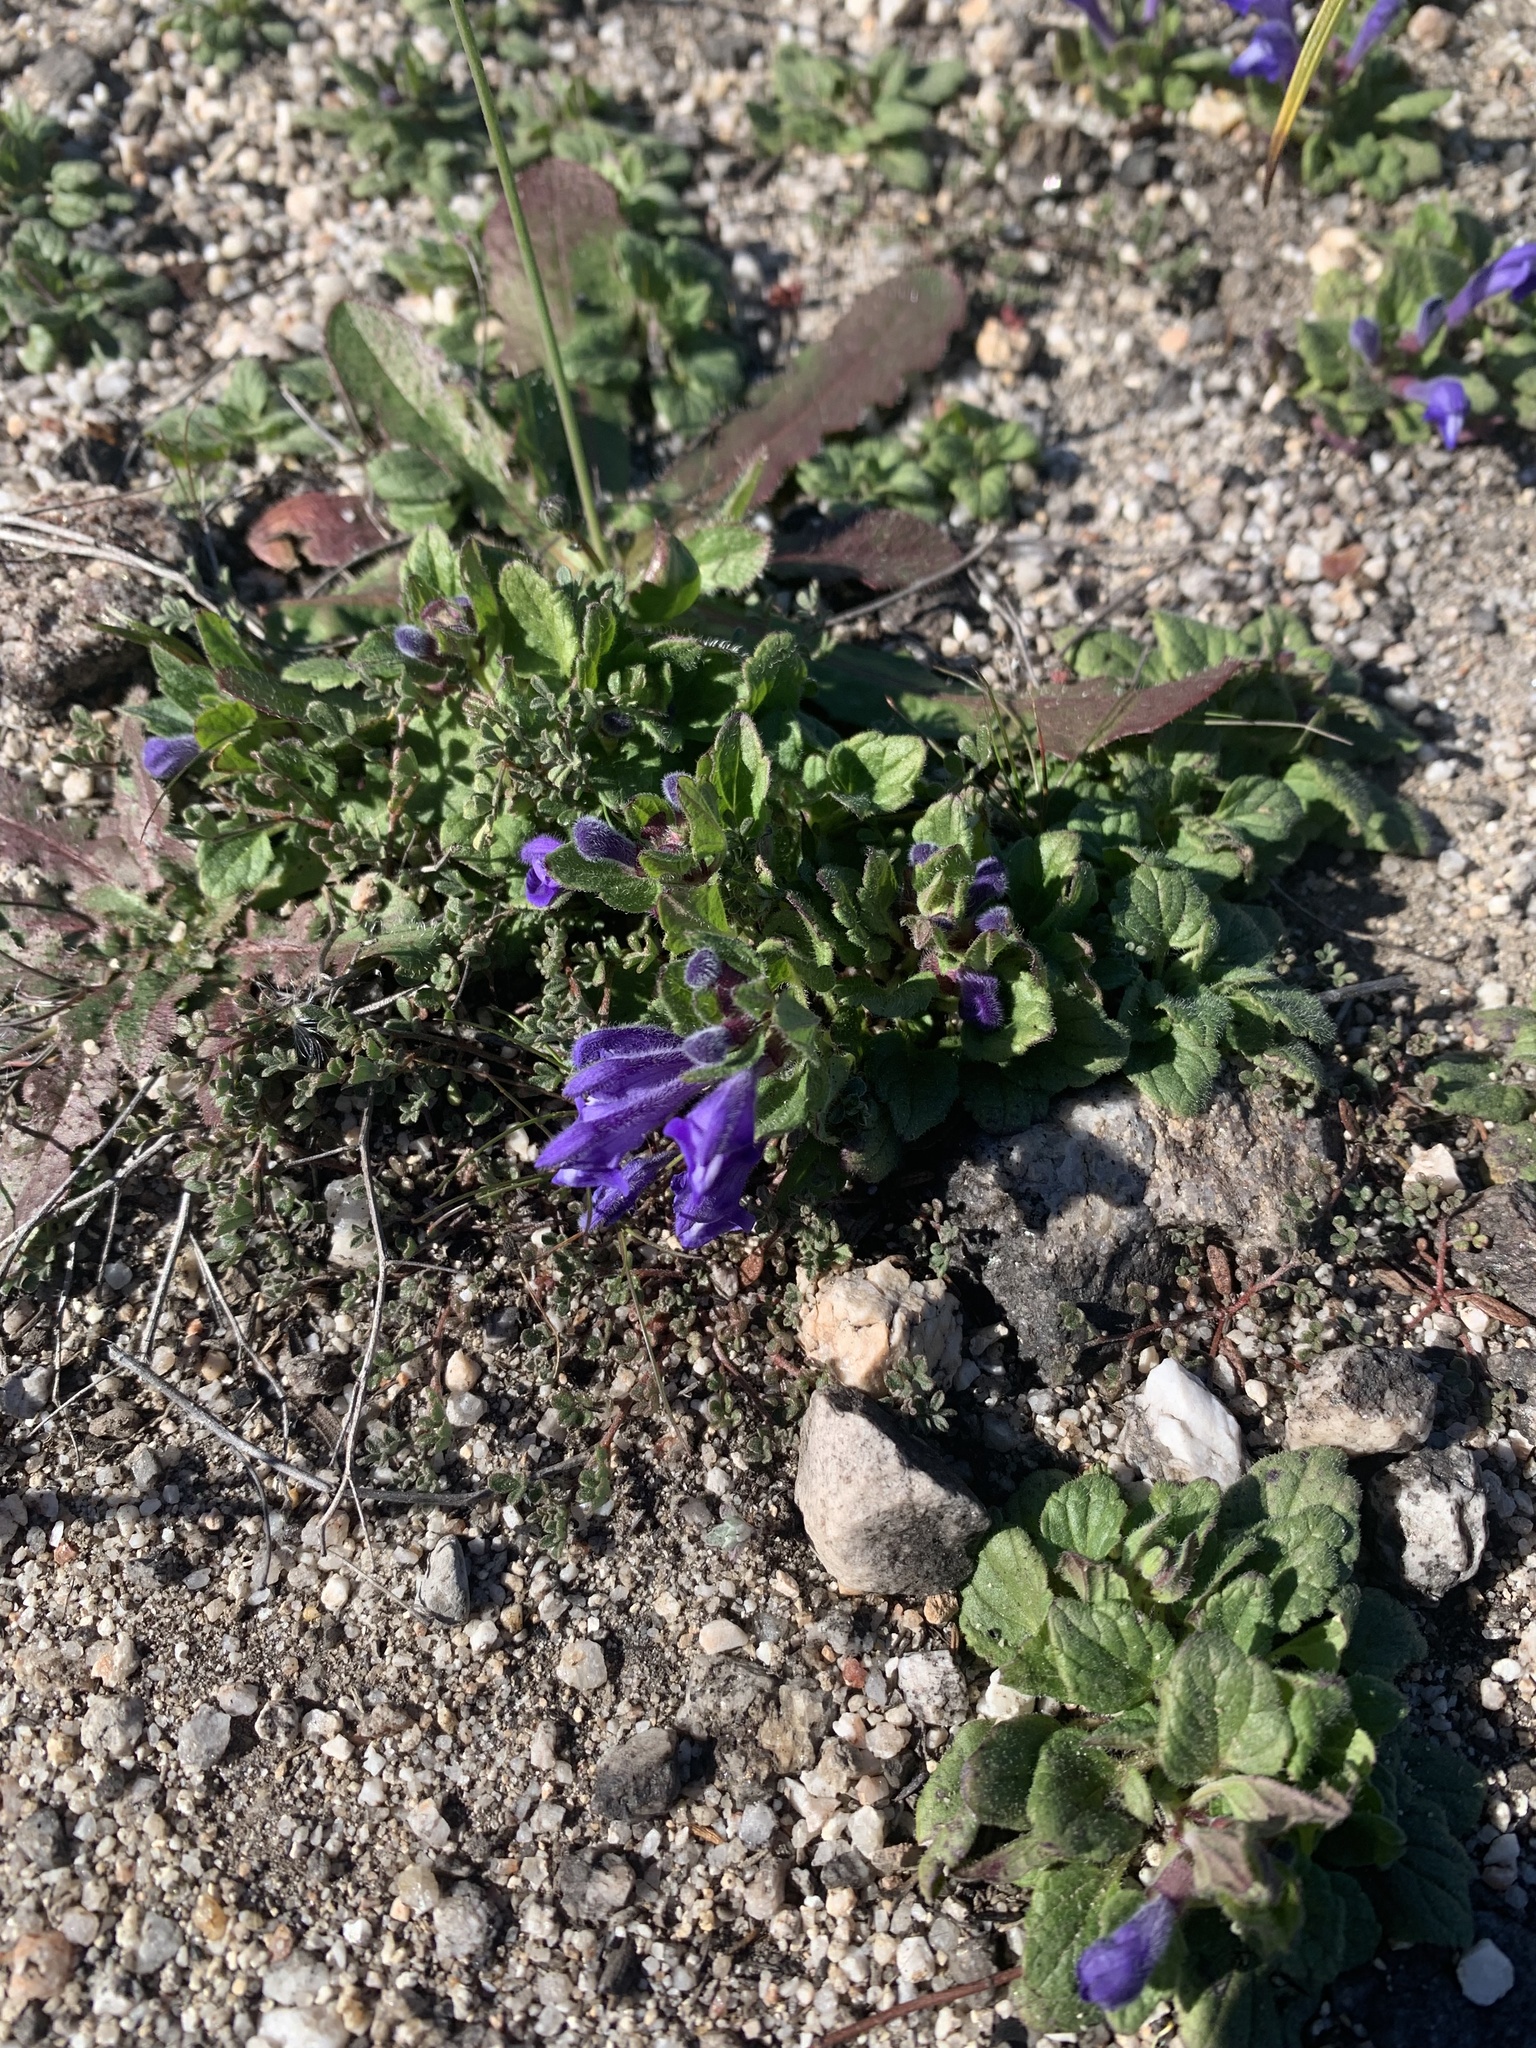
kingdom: Plantae
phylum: Tracheophyta
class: Magnoliopsida
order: Lamiales
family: Lamiaceae
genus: Scutellaria
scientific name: Scutellaria tuberosa
